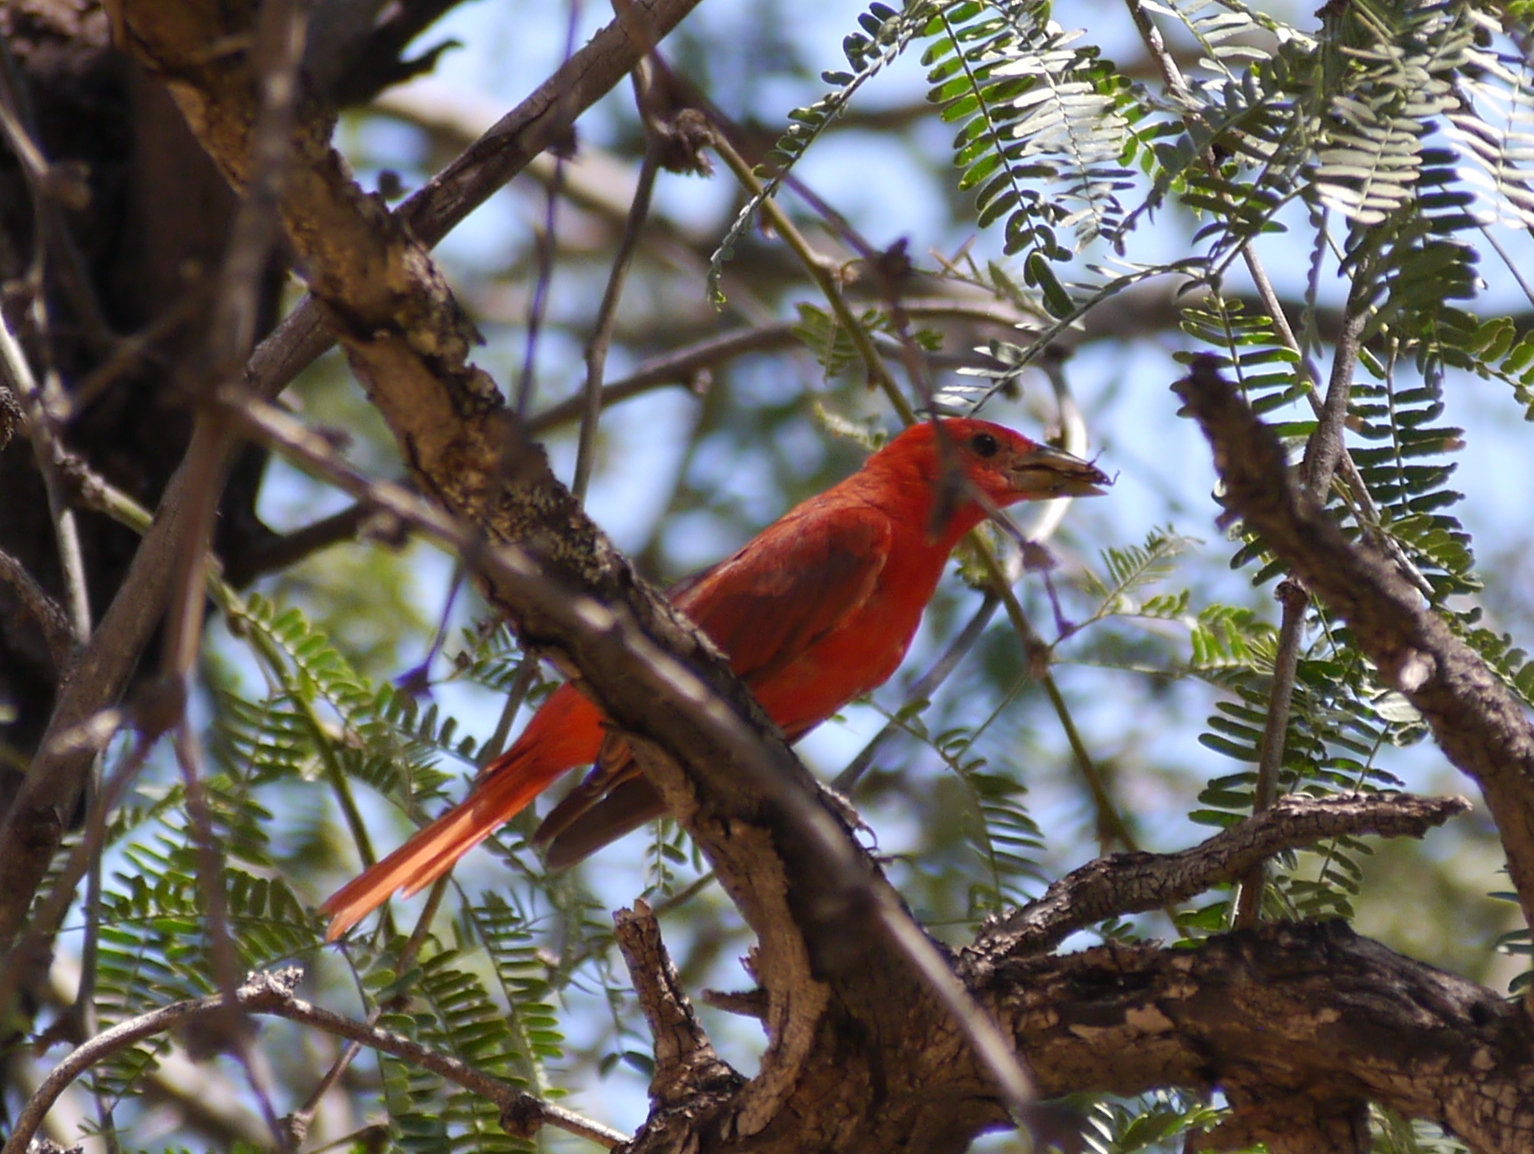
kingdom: Animalia
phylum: Chordata
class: Aves
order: Passeriformes
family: Cardinalidae
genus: Piranga
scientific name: Piranga rubra
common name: Summer tanager
